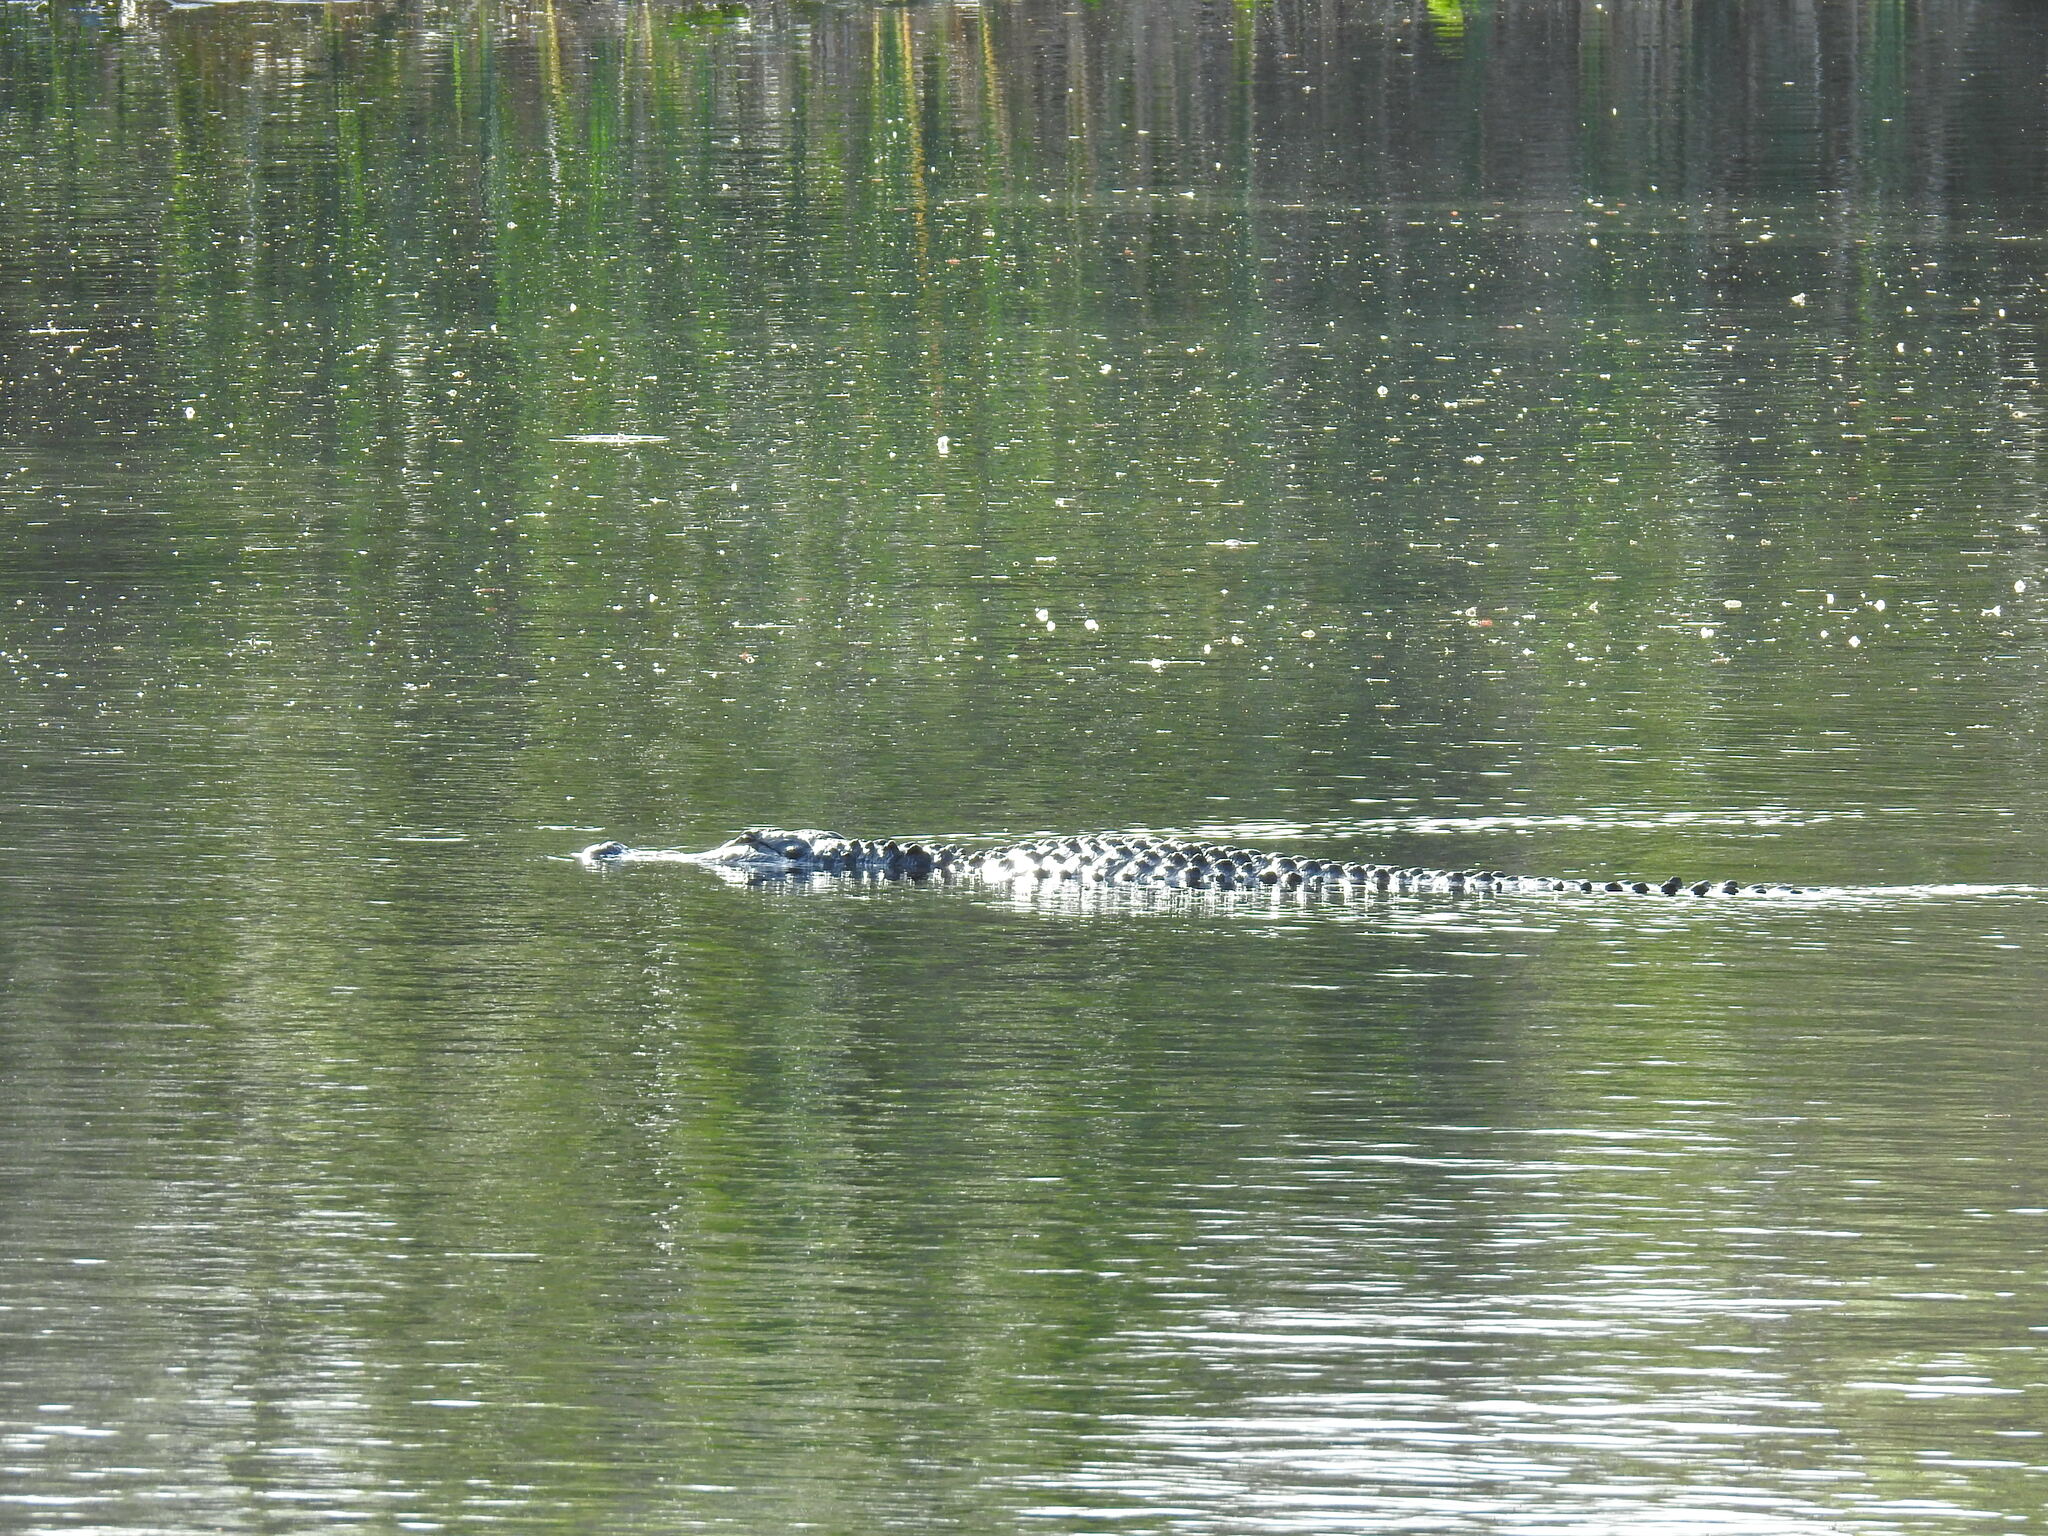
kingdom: Animalia
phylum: Chordata
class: Crocodylia
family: Alligatoridae
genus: Alligator
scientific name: Alligator mississippiensis
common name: American alligator
